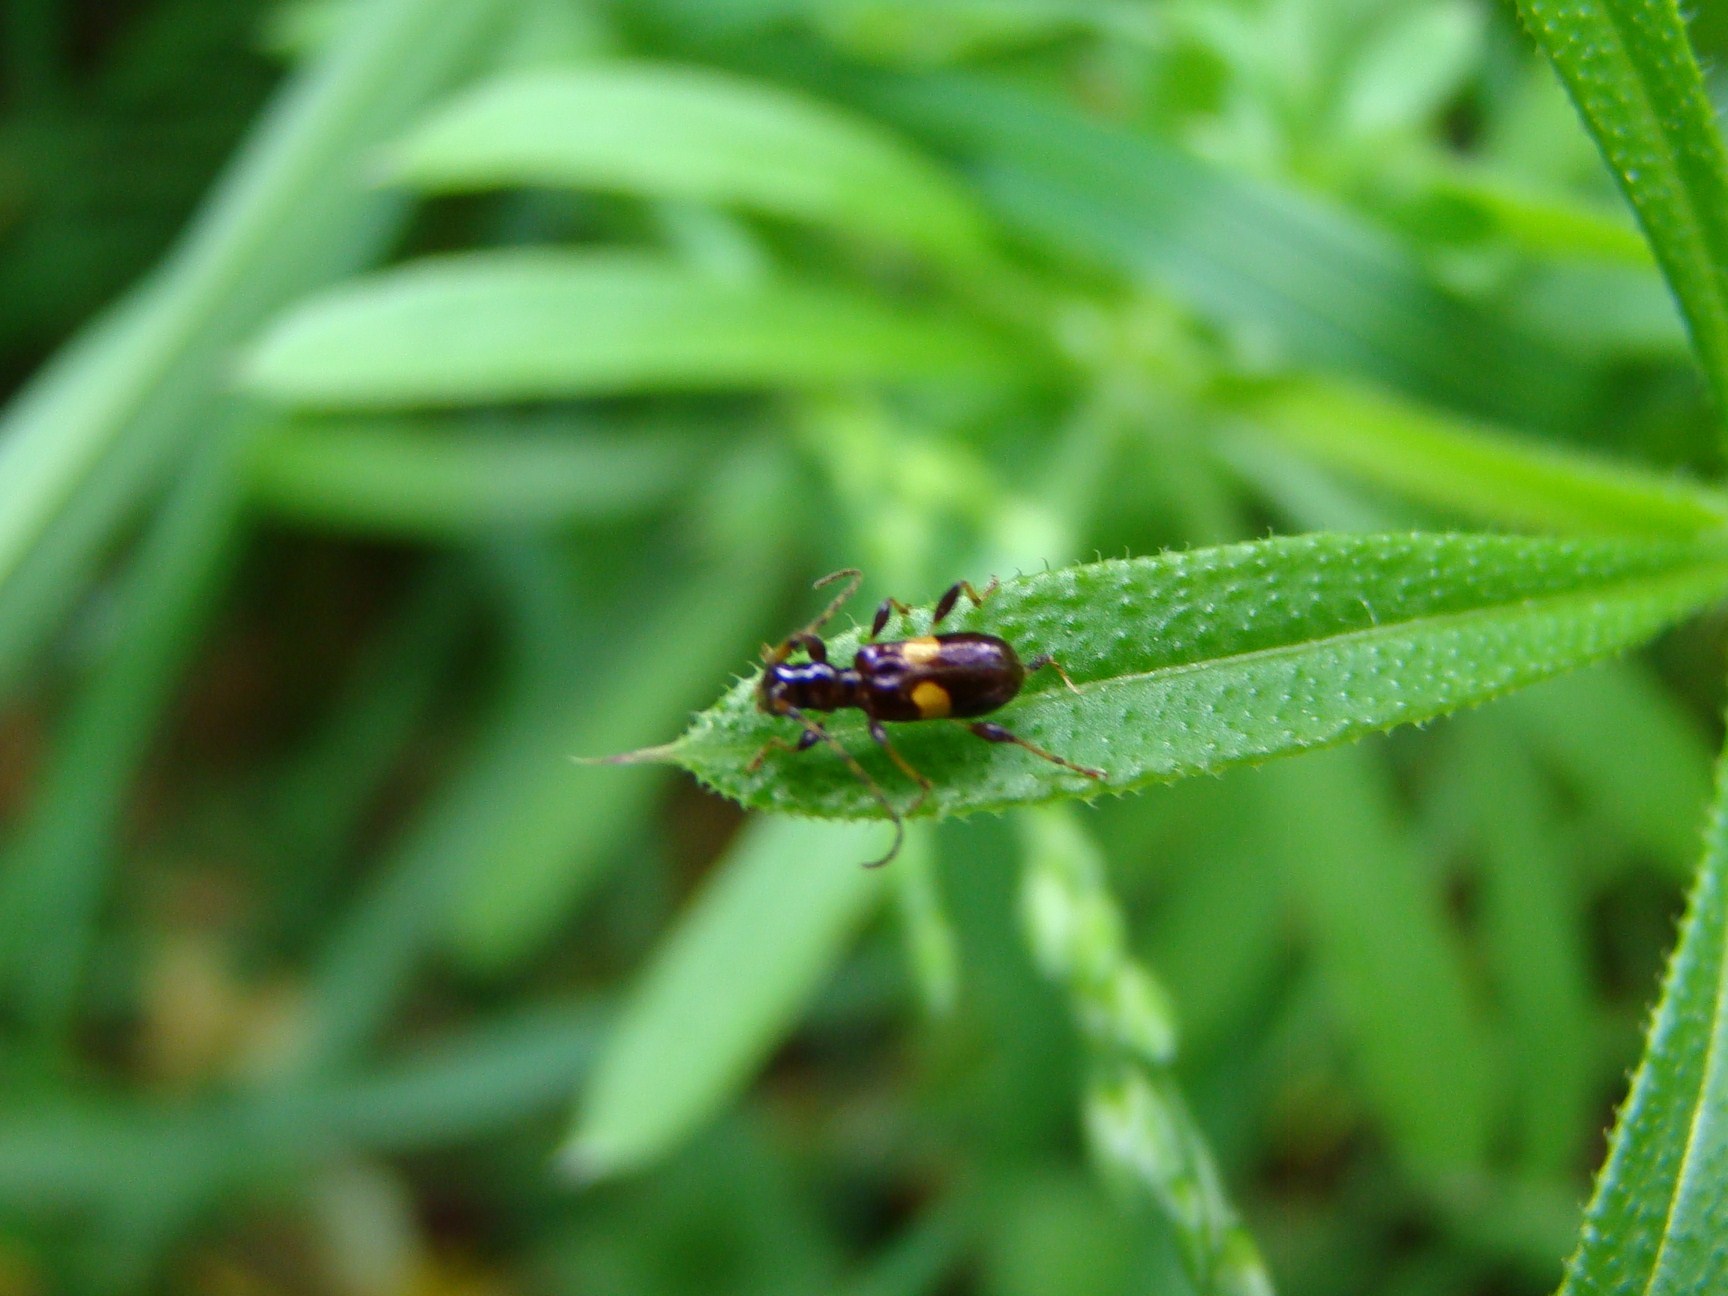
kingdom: Animalia
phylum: Arthropoda
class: Insecta
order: Coleoptera
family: Cerambycidae
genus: Zorion
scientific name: Zorion guttigerum
